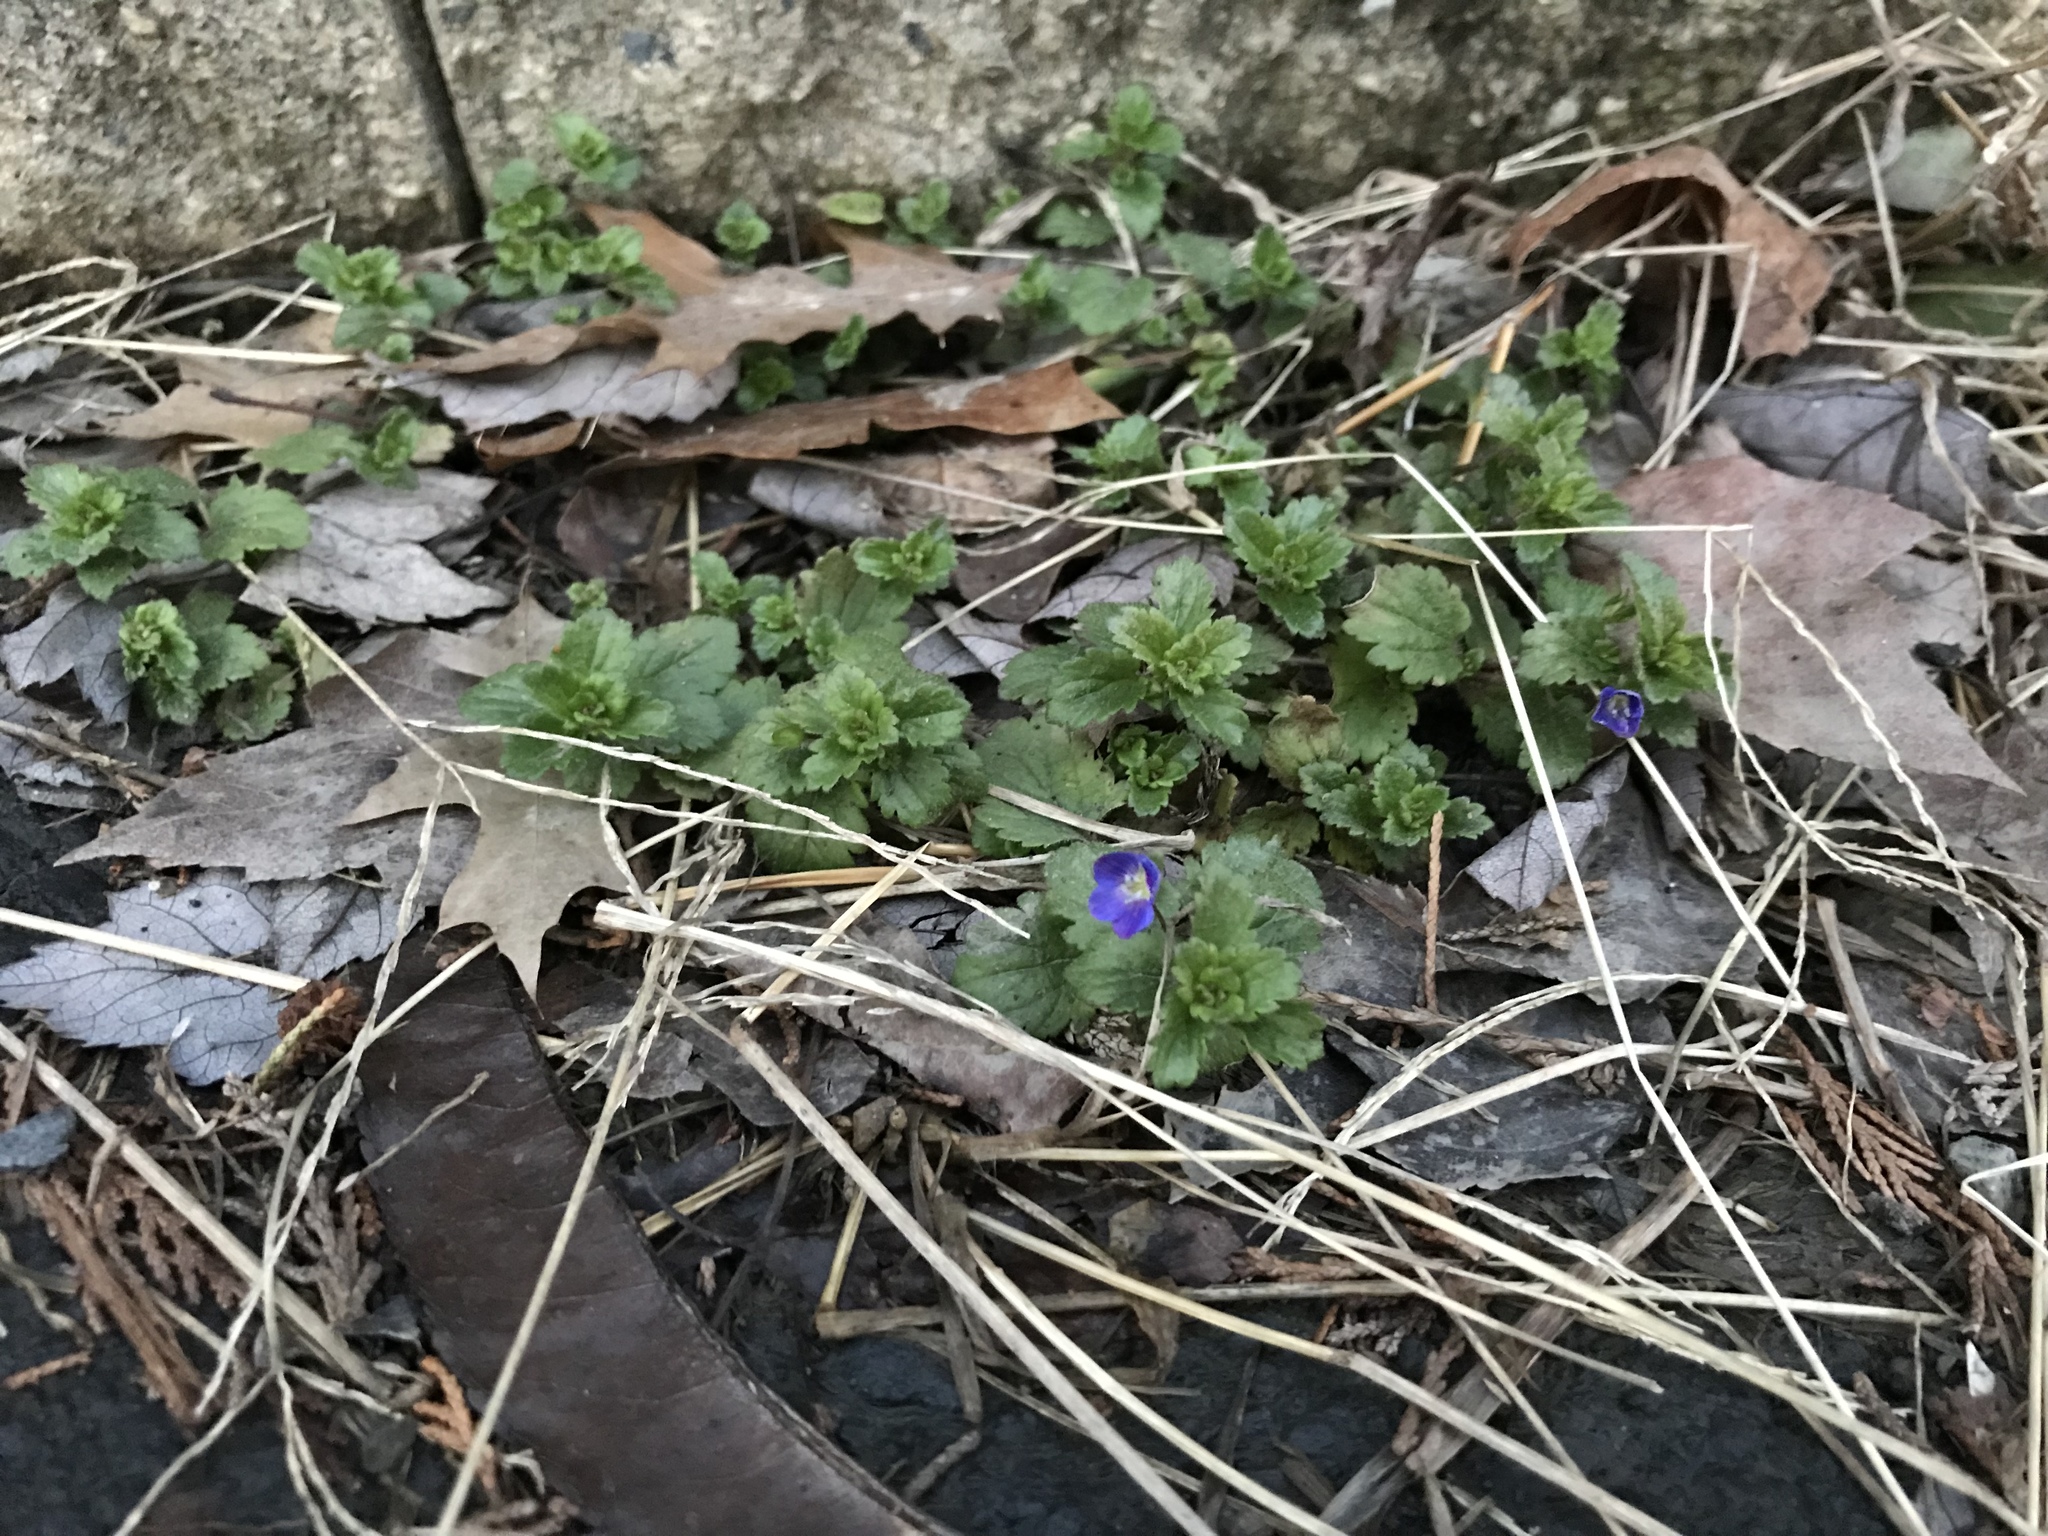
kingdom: Plantae
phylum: Tracheophyta
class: Magnoliopsida
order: Lamiales
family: Plantaginaceae
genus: Veronica
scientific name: Veronica persica
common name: Common field-speedwell
